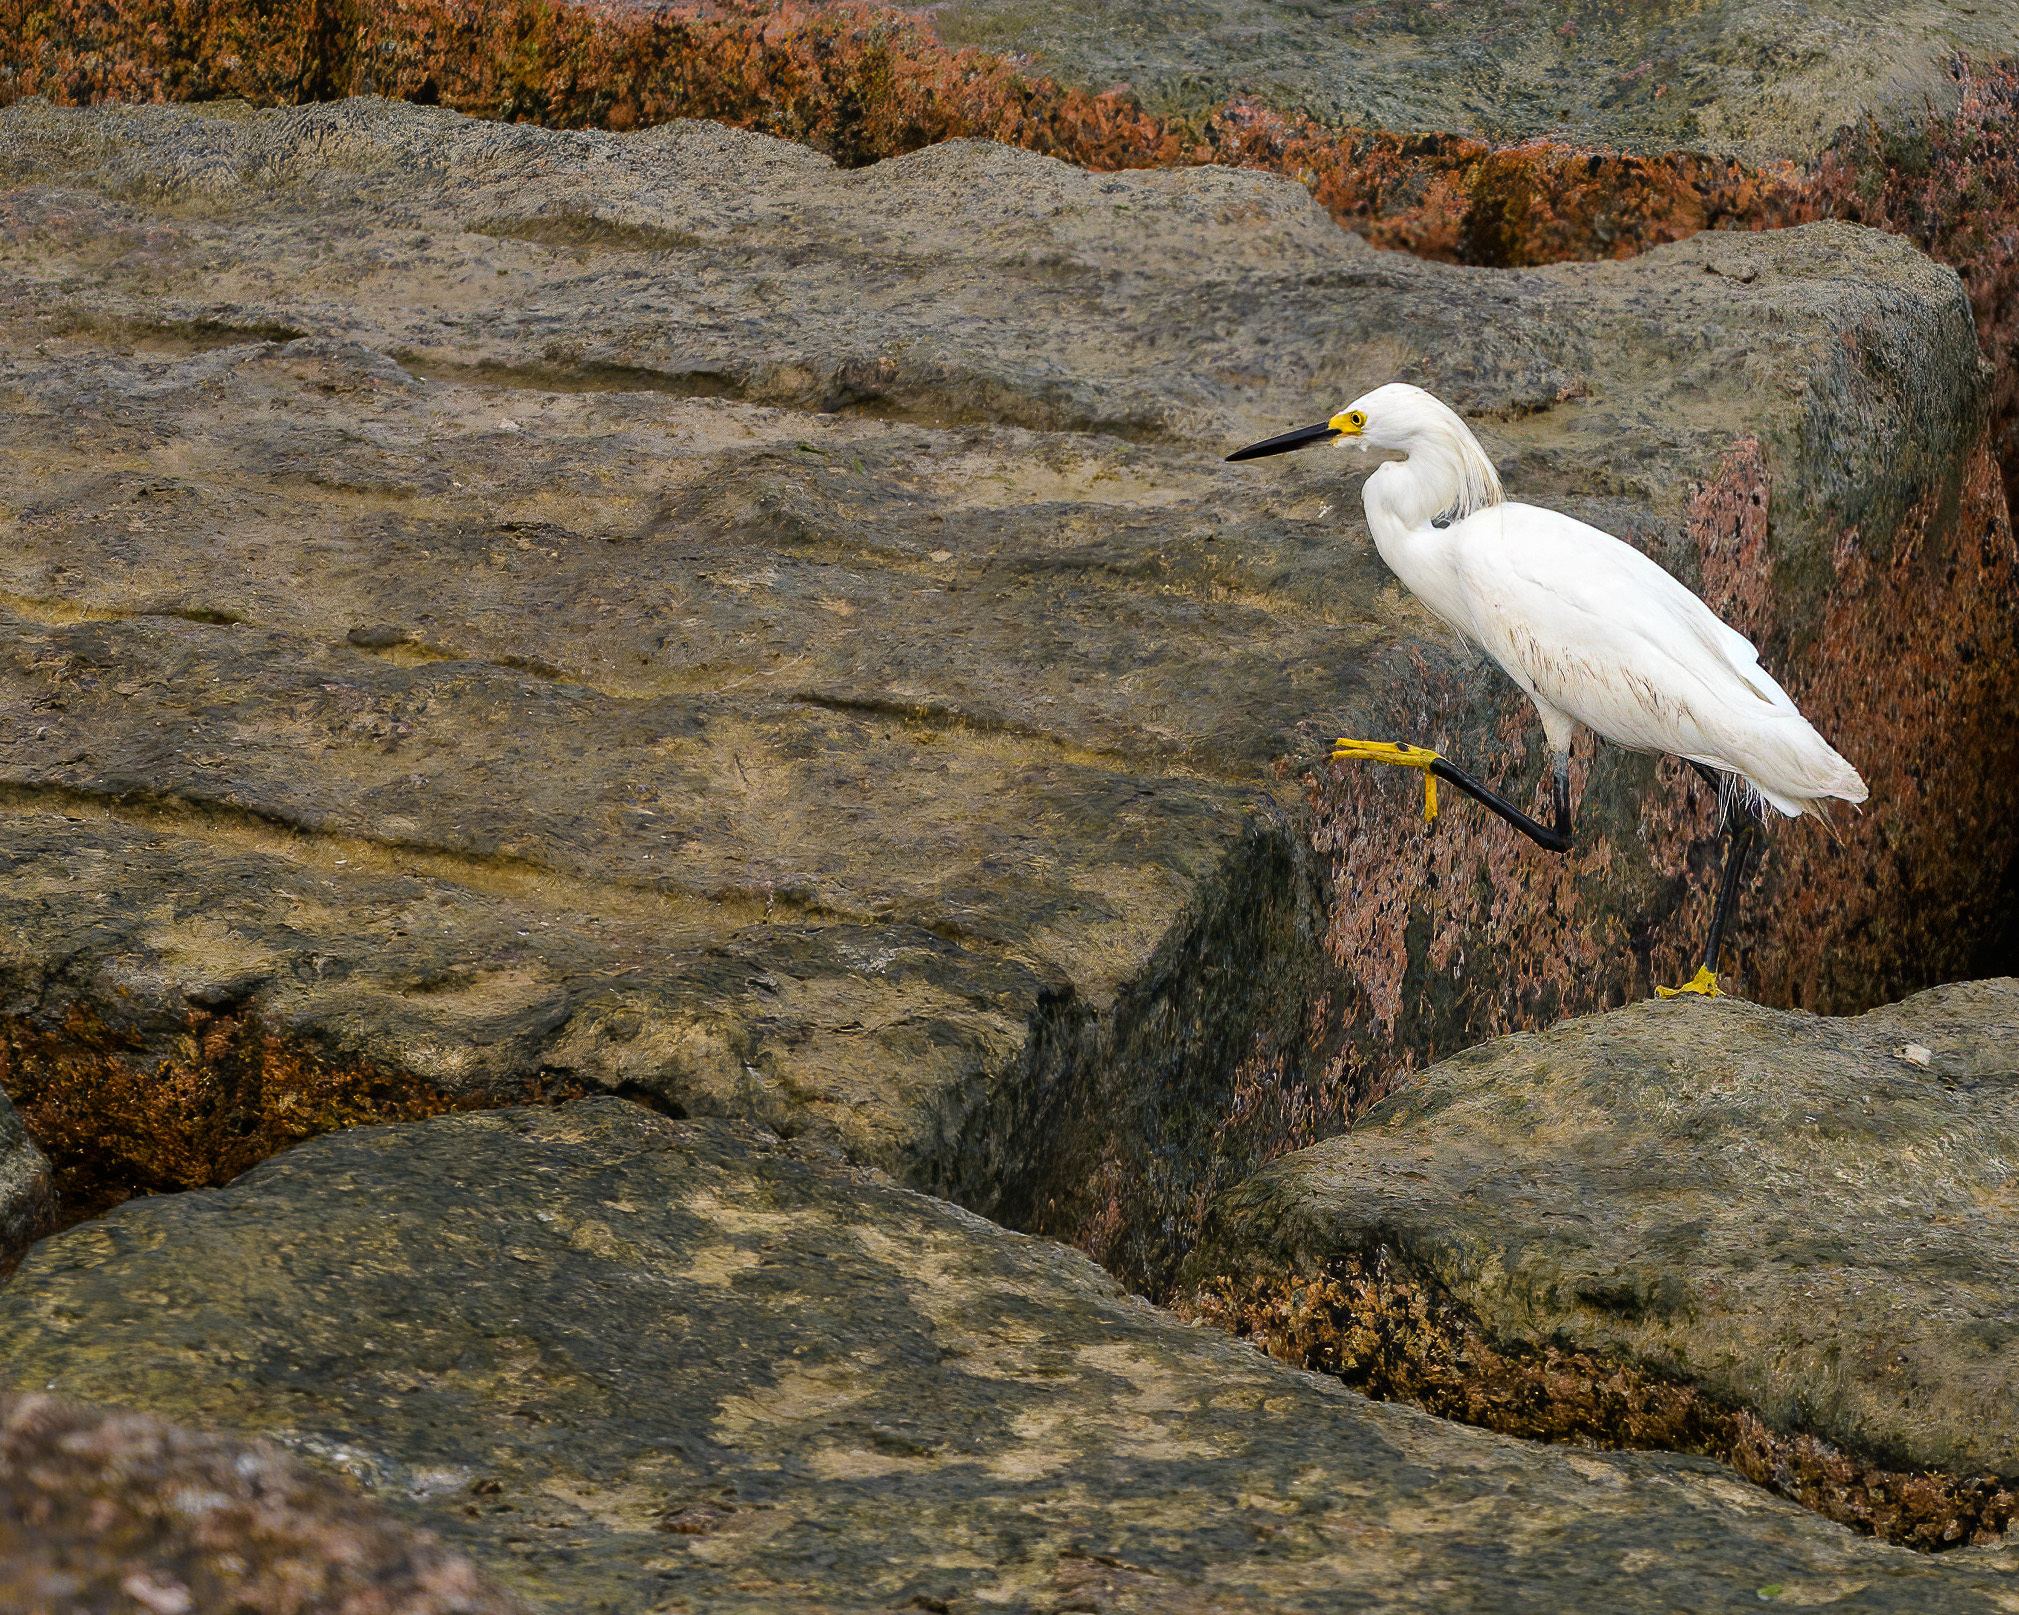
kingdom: Animalia
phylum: Chordata
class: Aves
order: Pelecaniformes
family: Ardeidae
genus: Egretta
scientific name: Egretta thula
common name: Snowy egret
